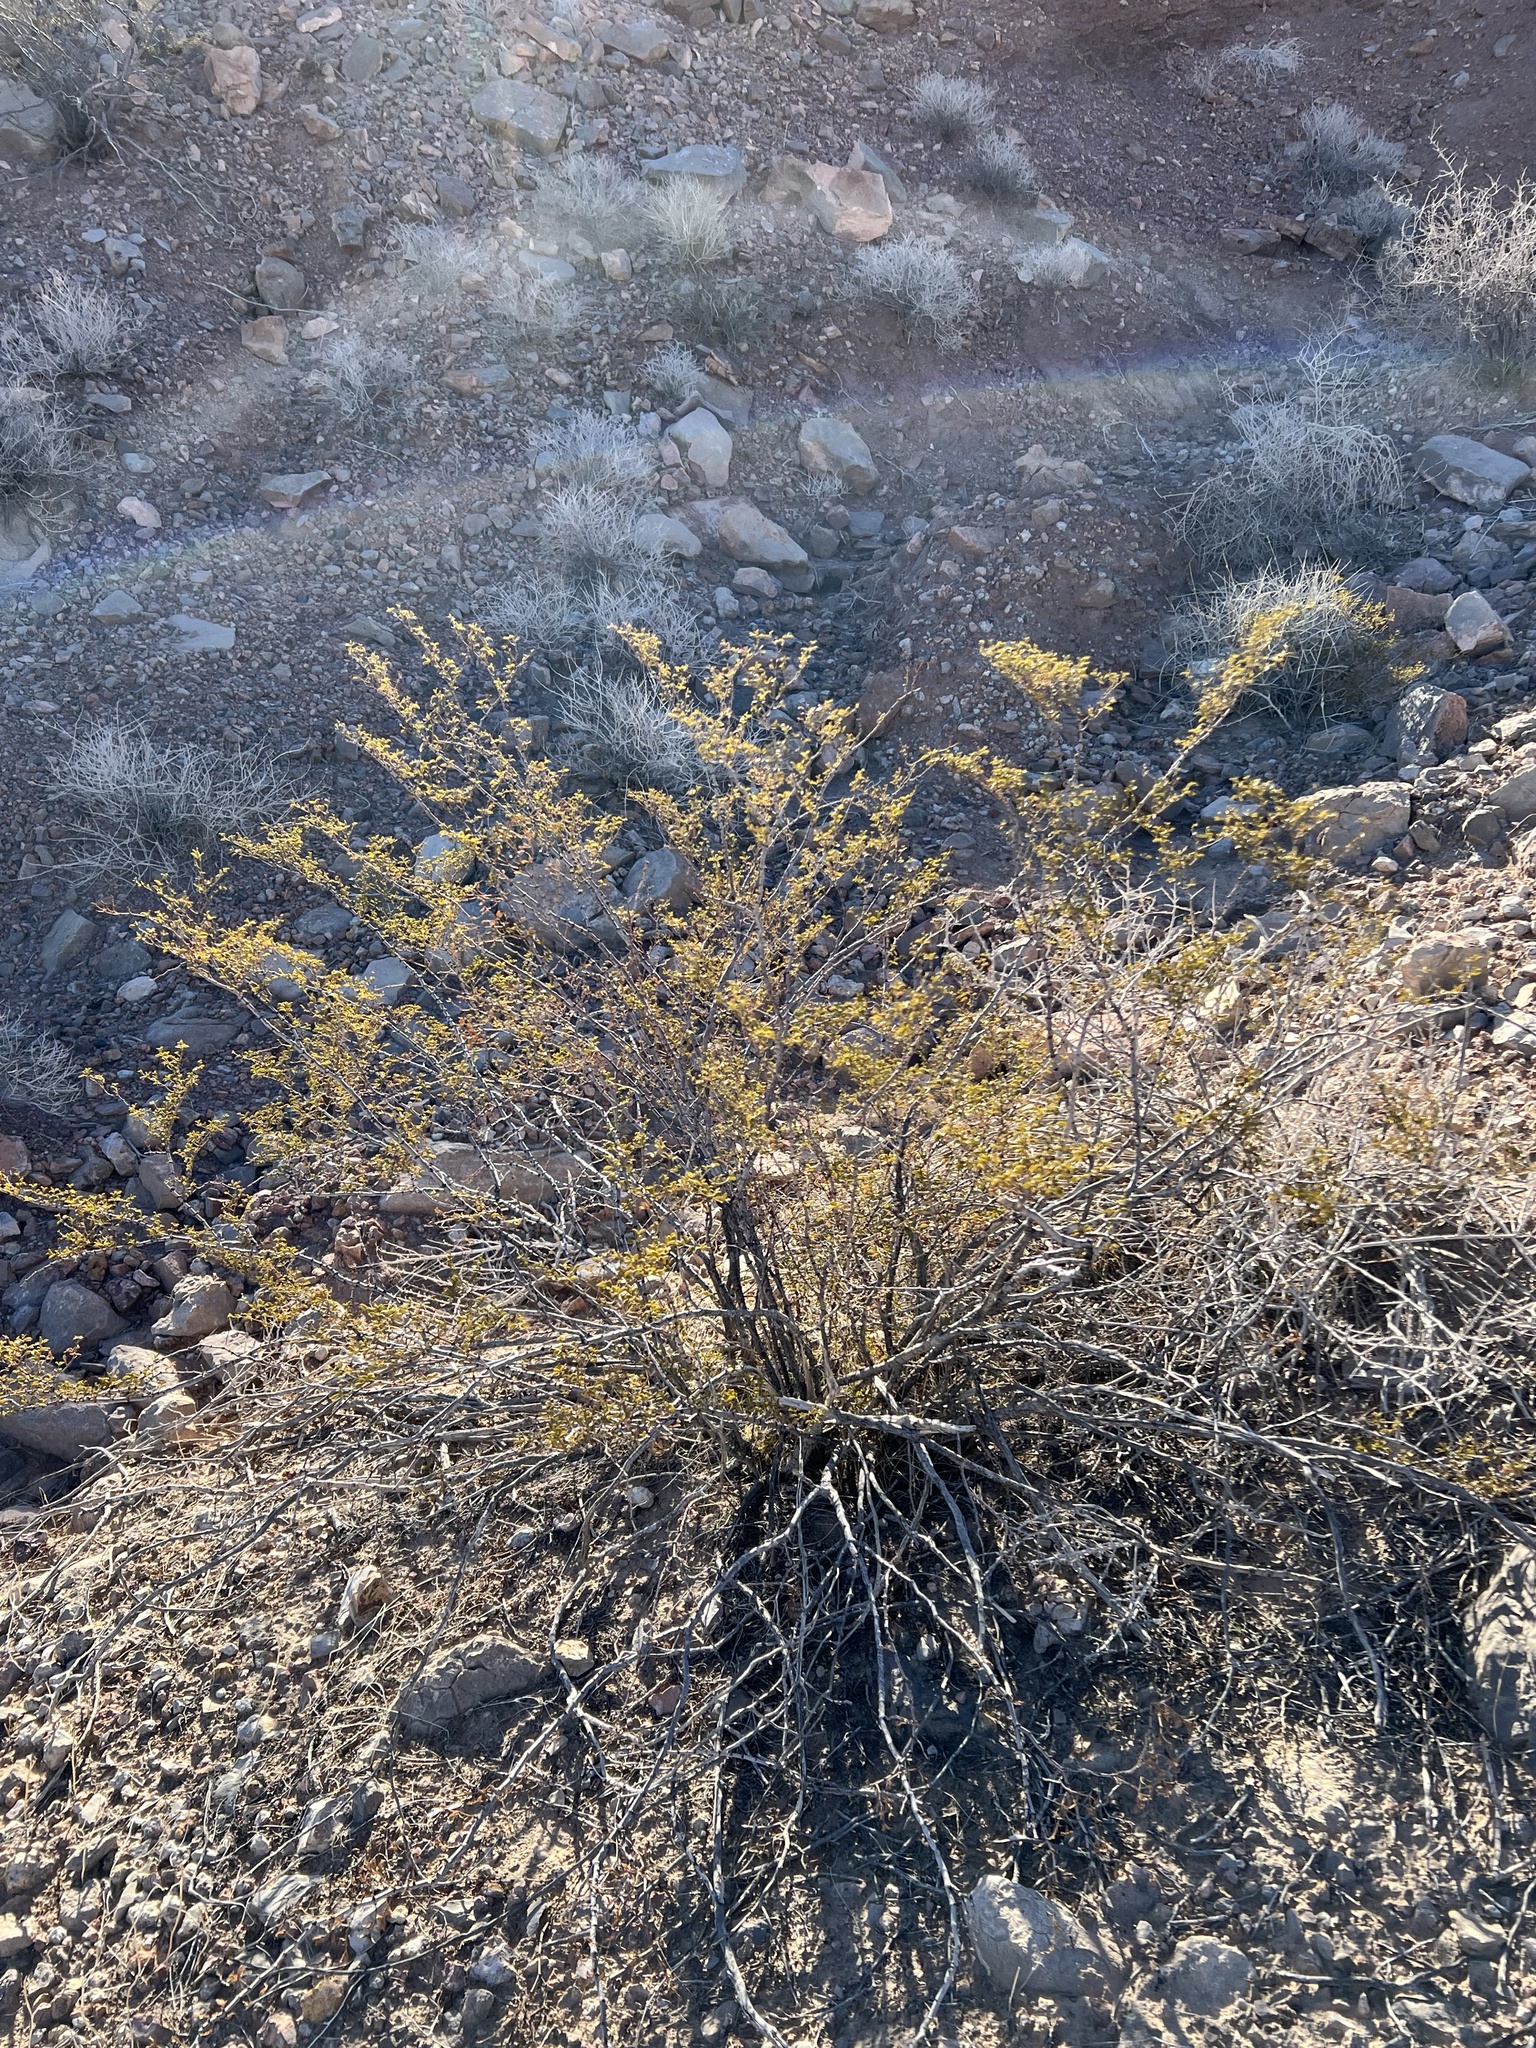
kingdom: Plantae
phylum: Tracheophyta
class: Magnoliopsida
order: Zygophyllales
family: Zygophyllaceae
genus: Larrea
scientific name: Larrea tridentata
